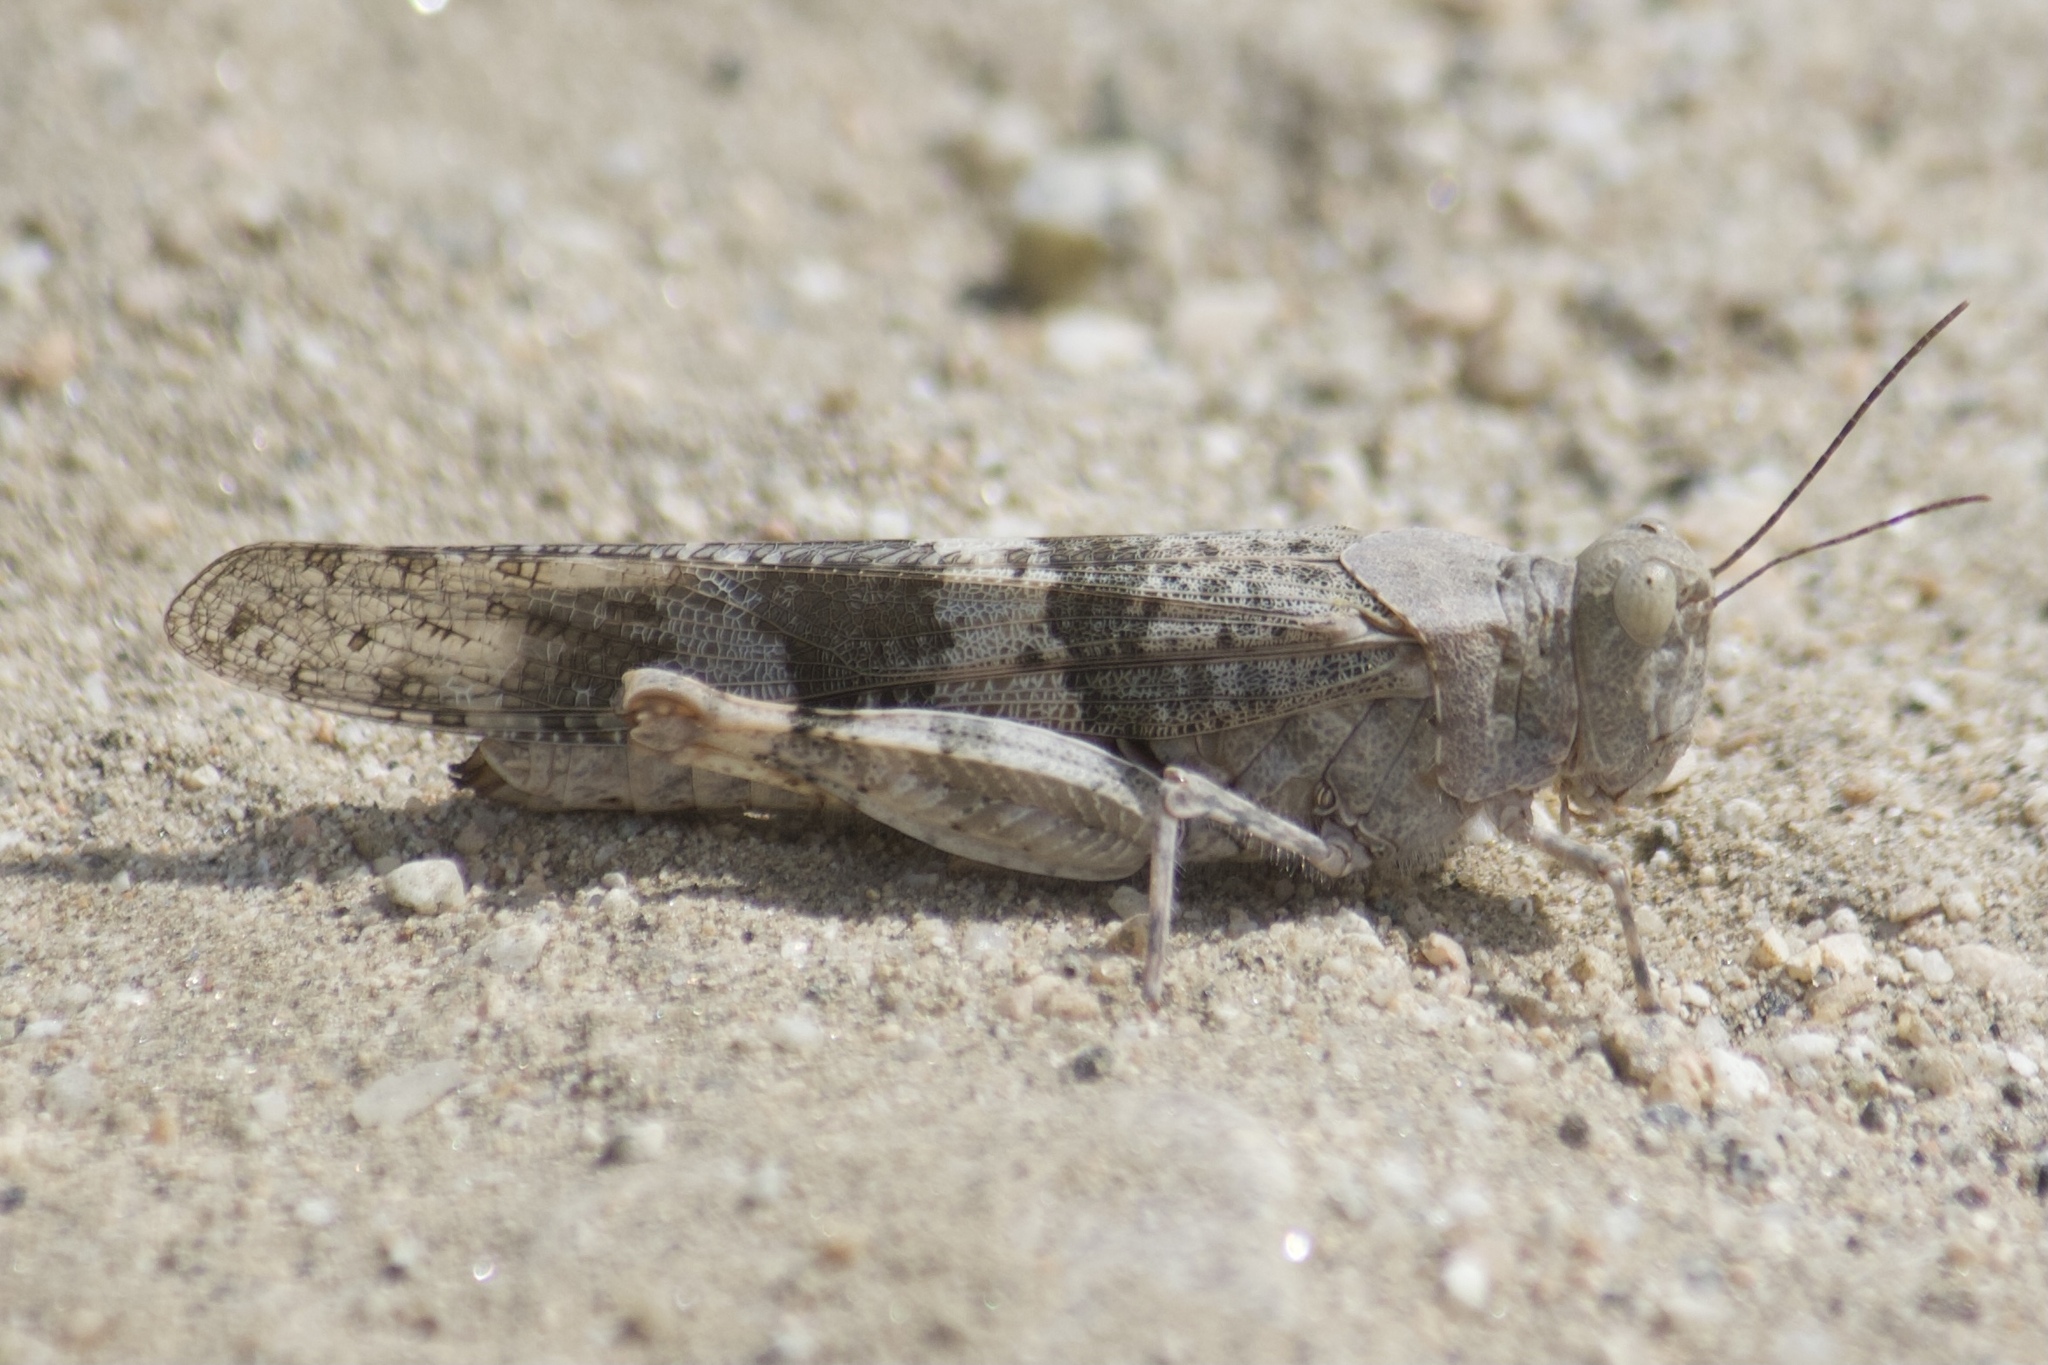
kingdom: Animalia
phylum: Arthropoda
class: Insecta
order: Orthoptera
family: Acrididae
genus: Trimerotropis
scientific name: Trimerotropis pallidipennis
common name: Pallid-winged grasshopper
